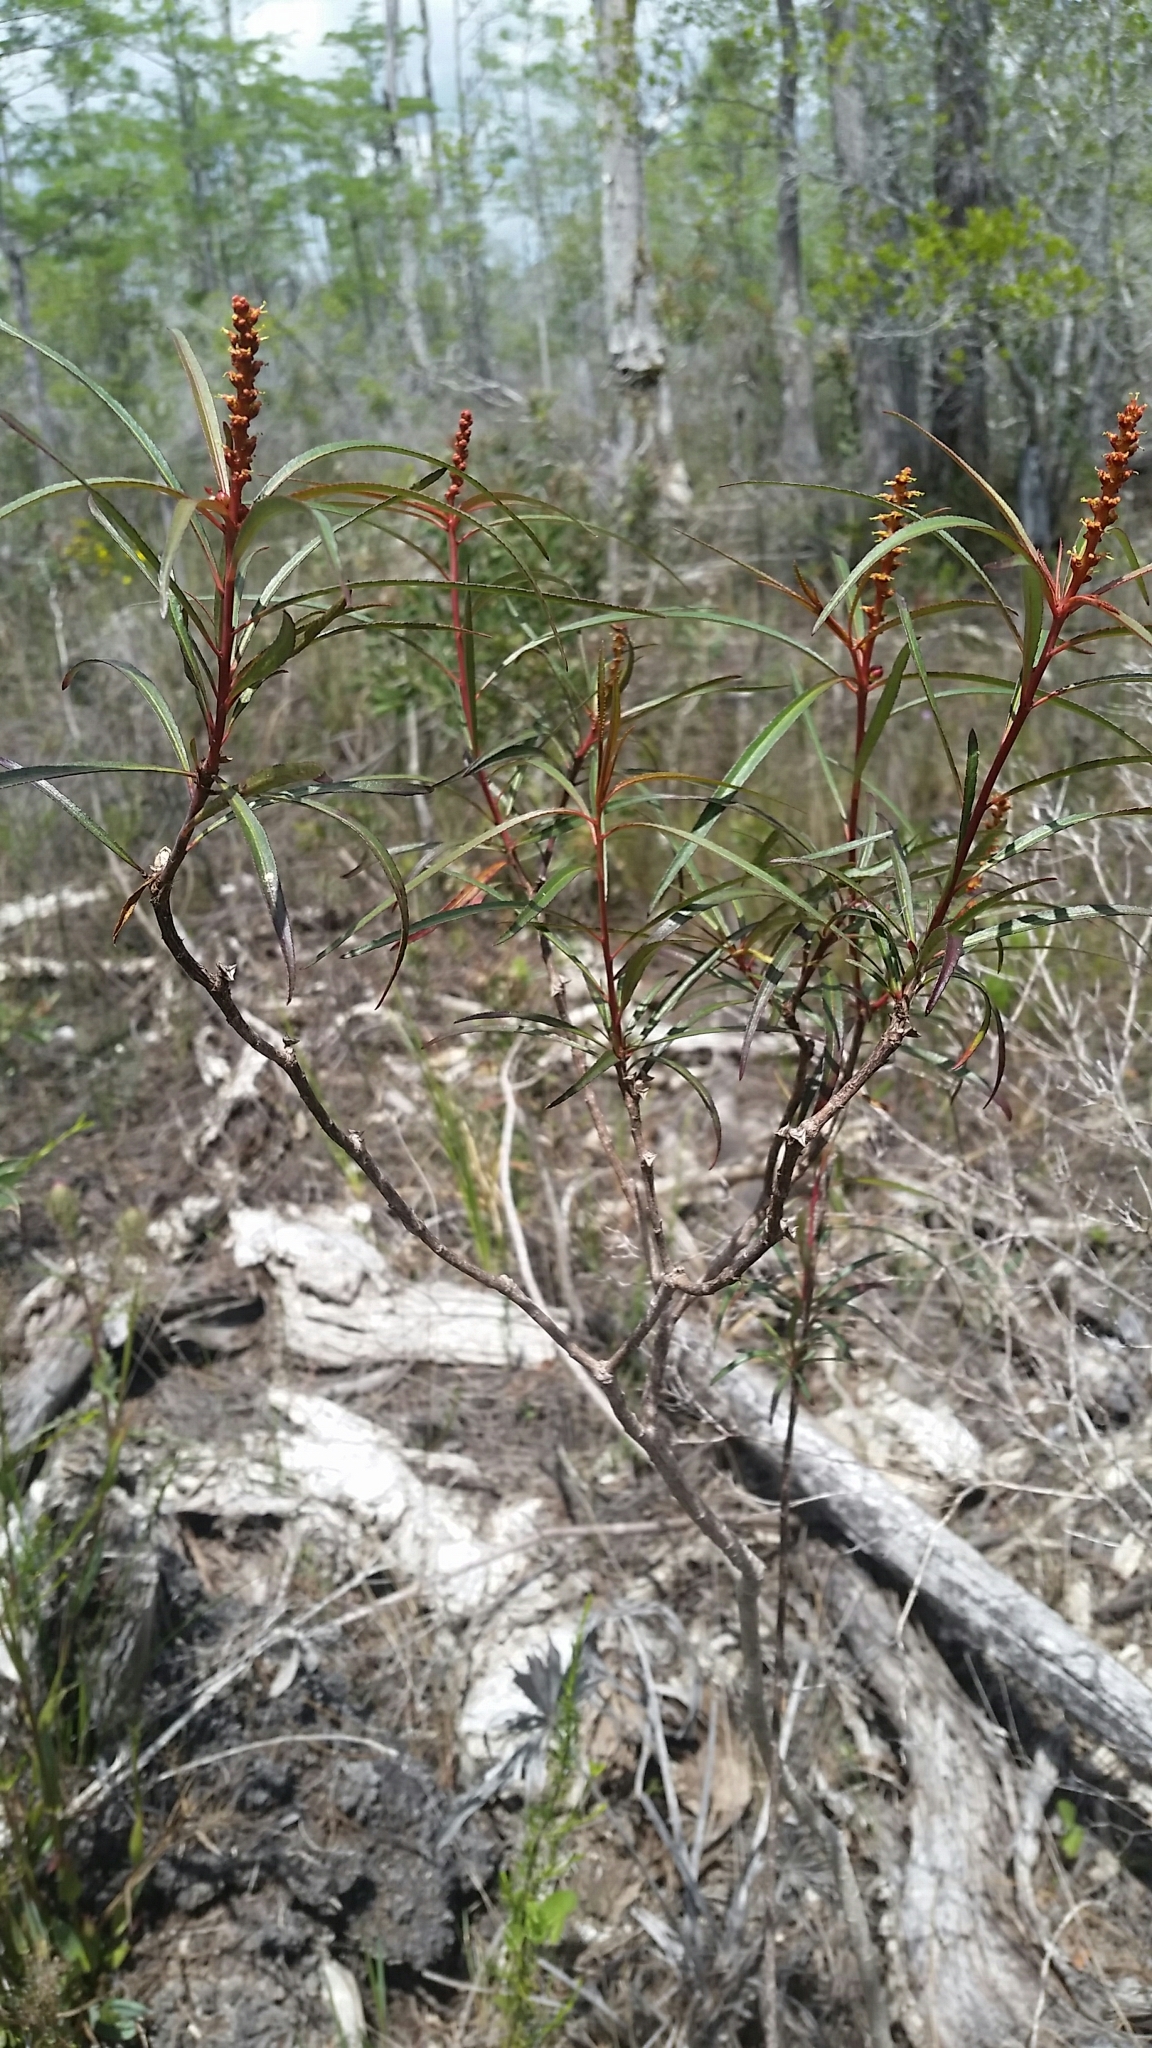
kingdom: Plantae
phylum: Tracheophyta
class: Magnoliopsida
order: Malpighiales
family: Euphorbiaceae
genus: Stillingia
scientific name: Stillingia aquatica
